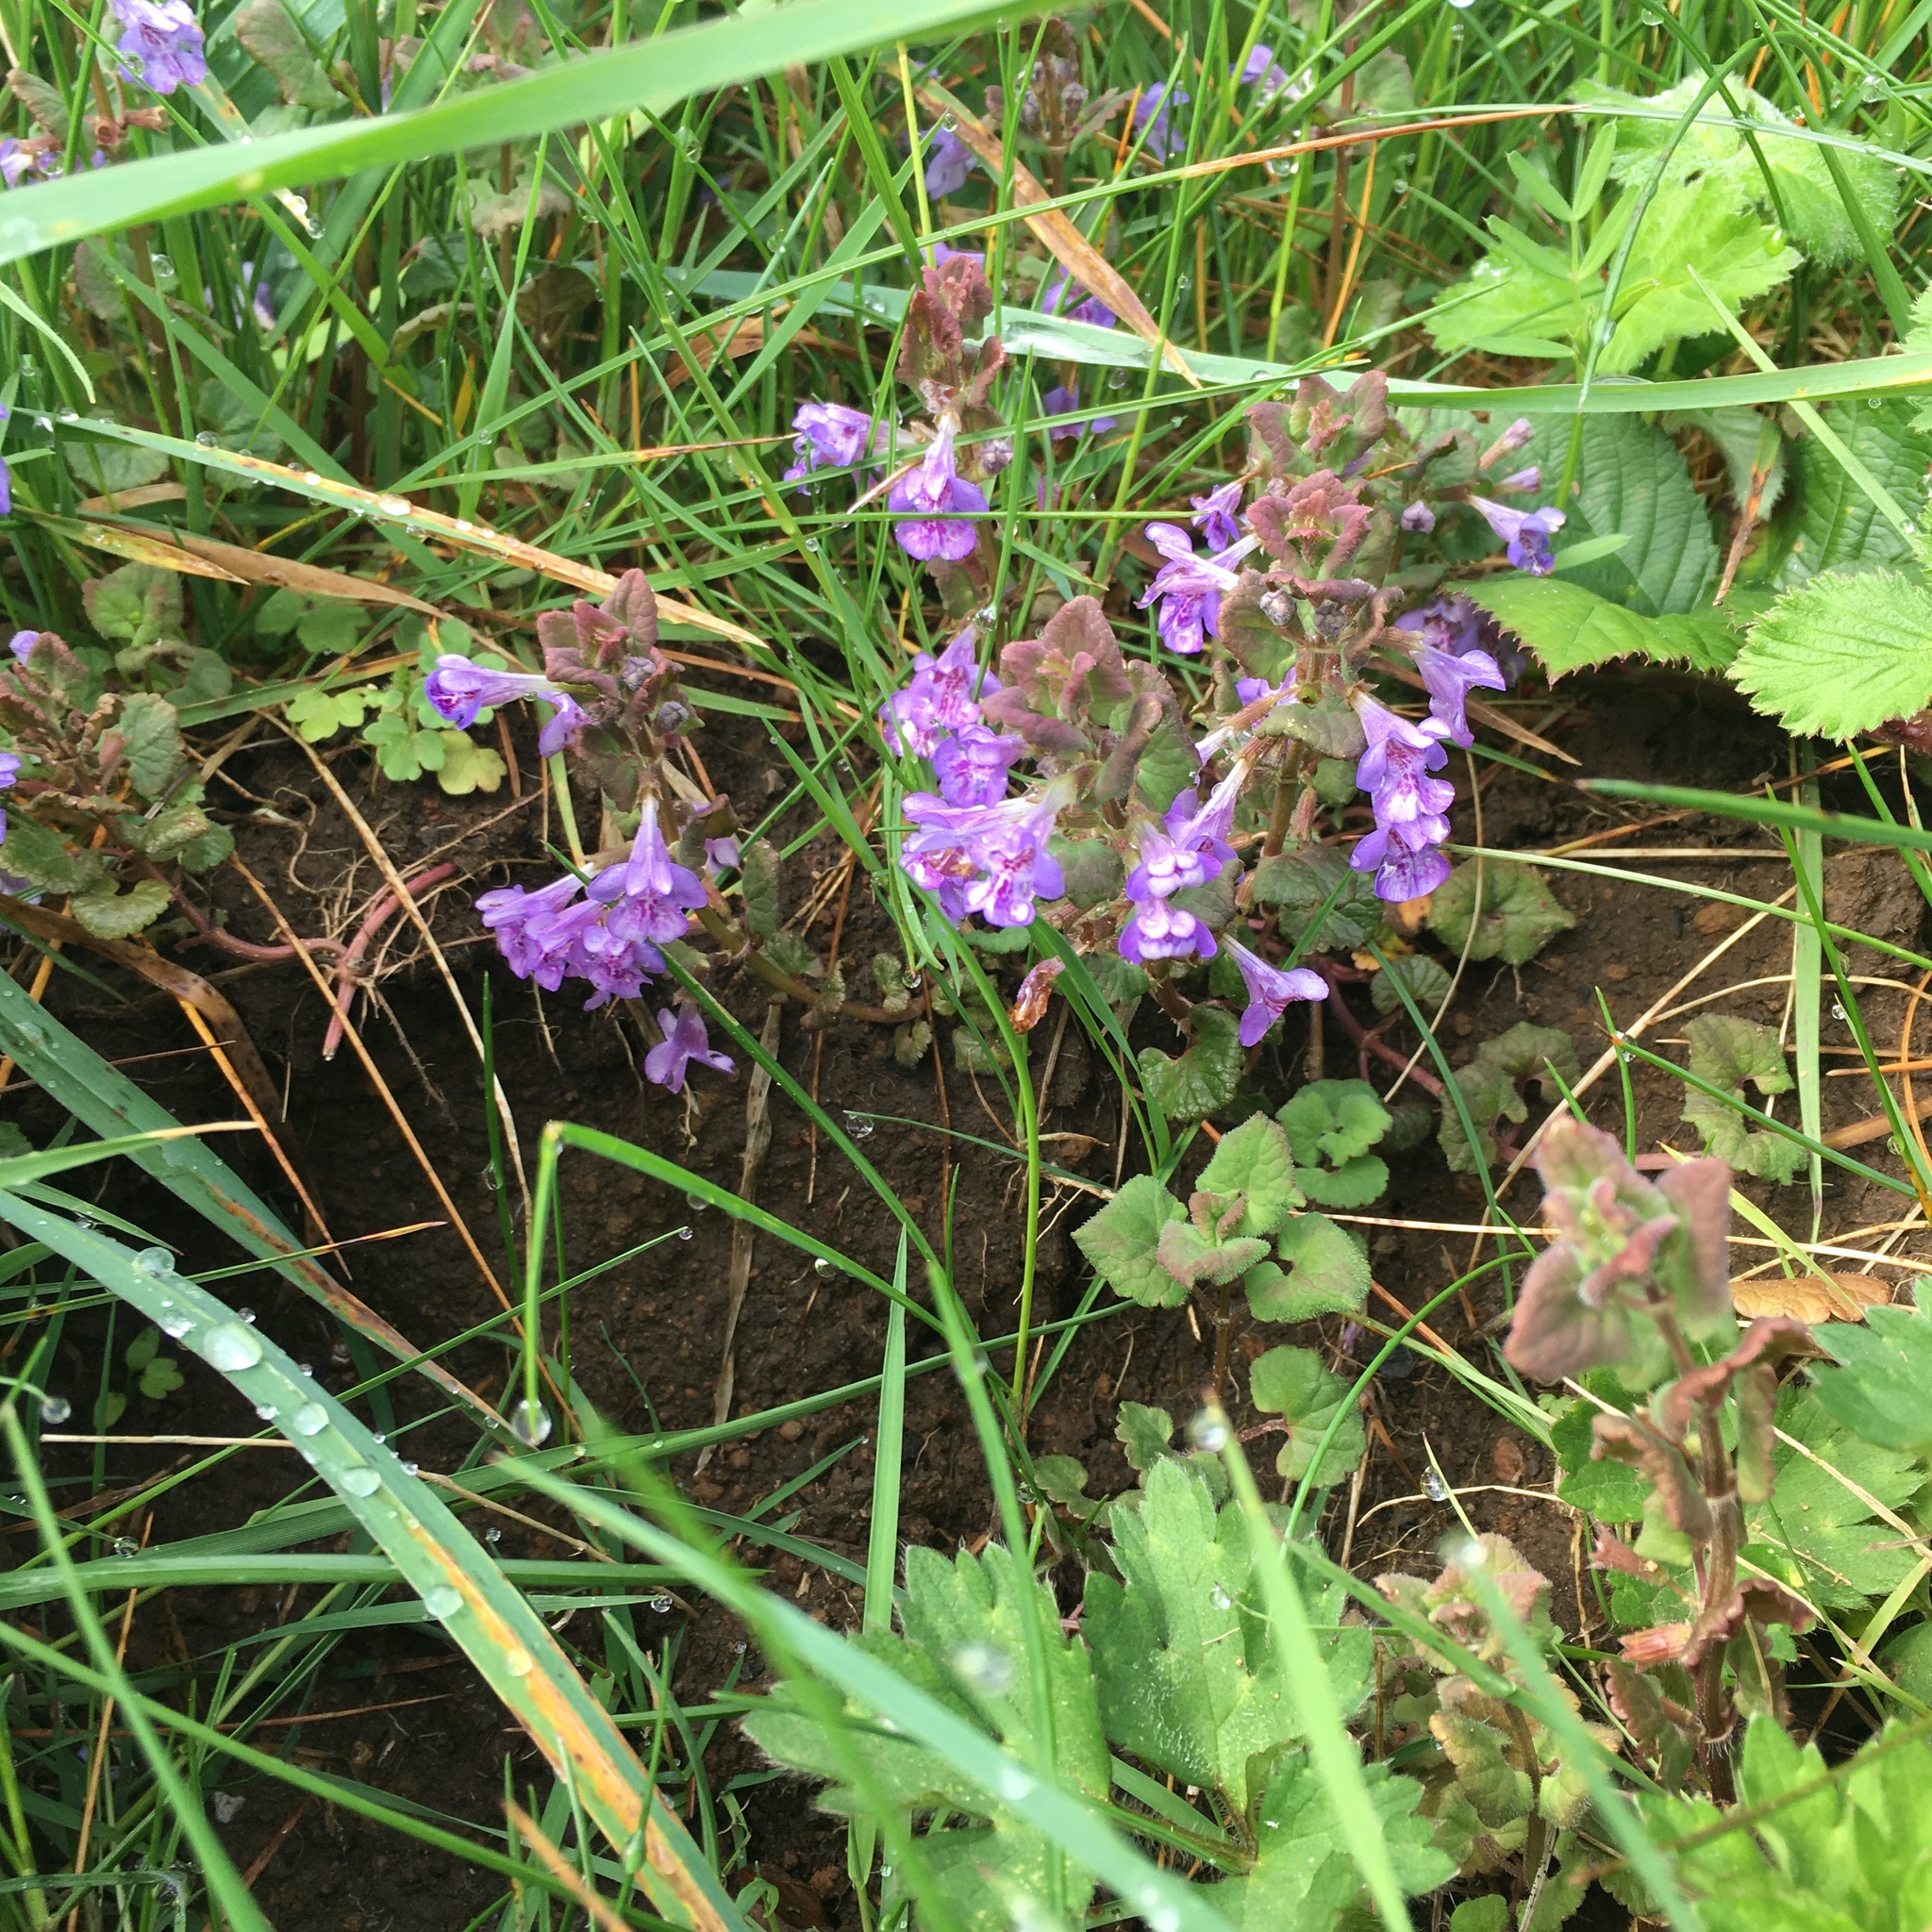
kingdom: Plantae
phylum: Tracheophyta
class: Magnoliopsida
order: Lamiales
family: Lamiaceae
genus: Glechoma
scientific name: Glechoma hederacea
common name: Ground ivy
